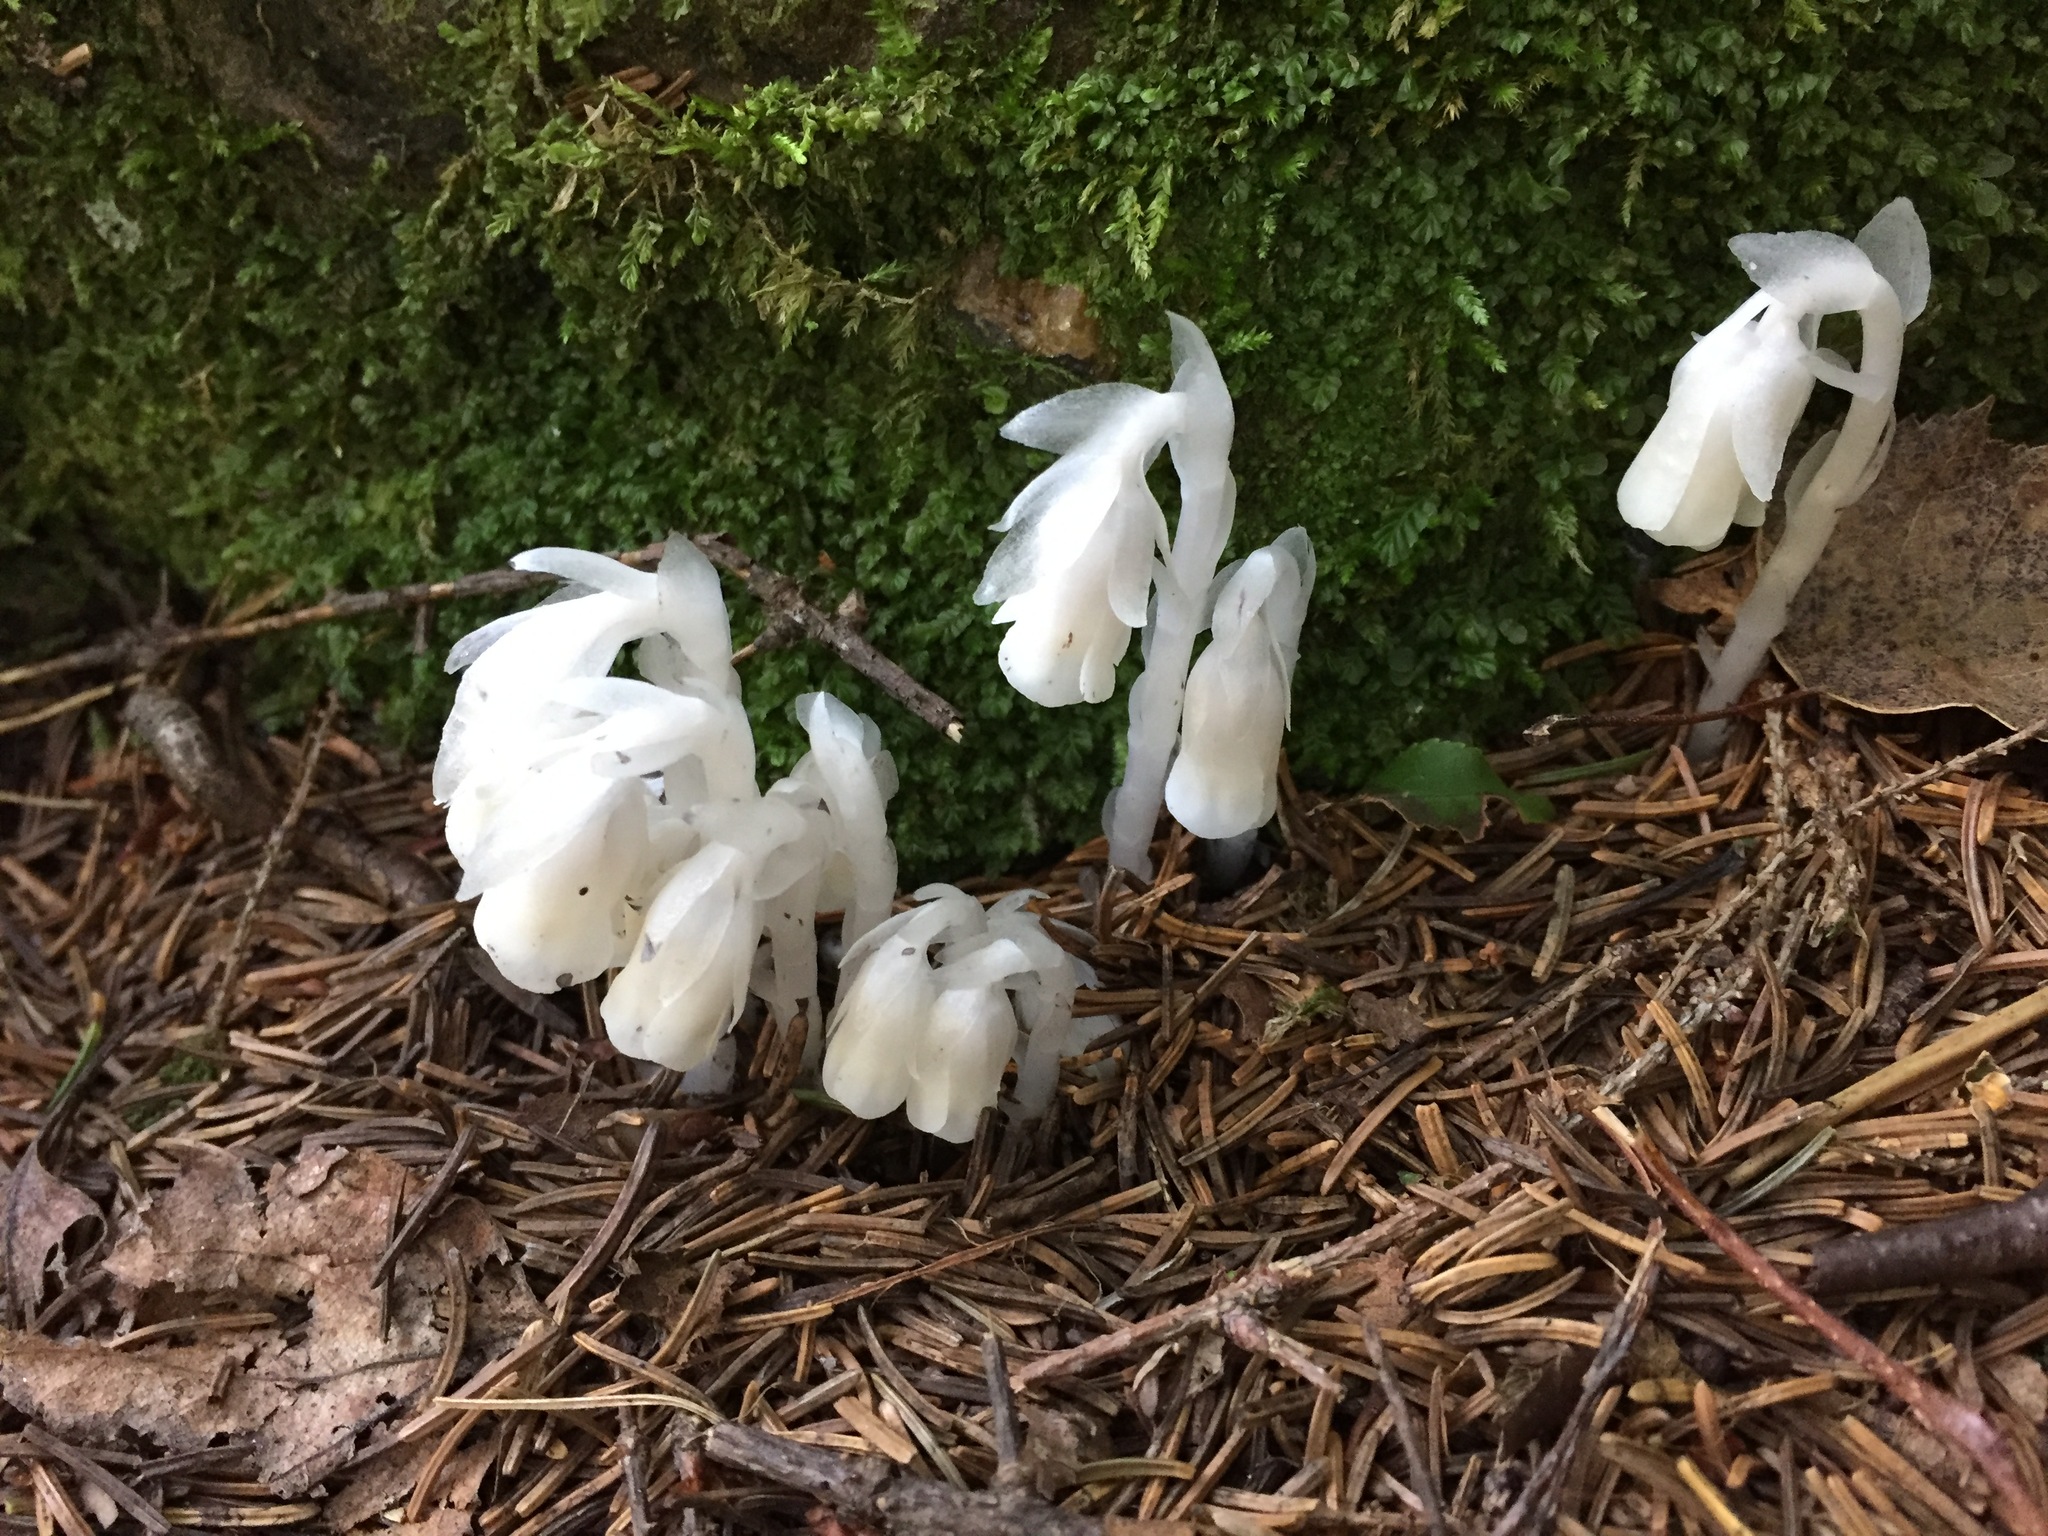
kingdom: Plantae
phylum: Tracheophyta
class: Magnoliopsida
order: Ericales
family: Ericaceae
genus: Monotropa
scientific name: Monotropa uniflora
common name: Convulsion root
